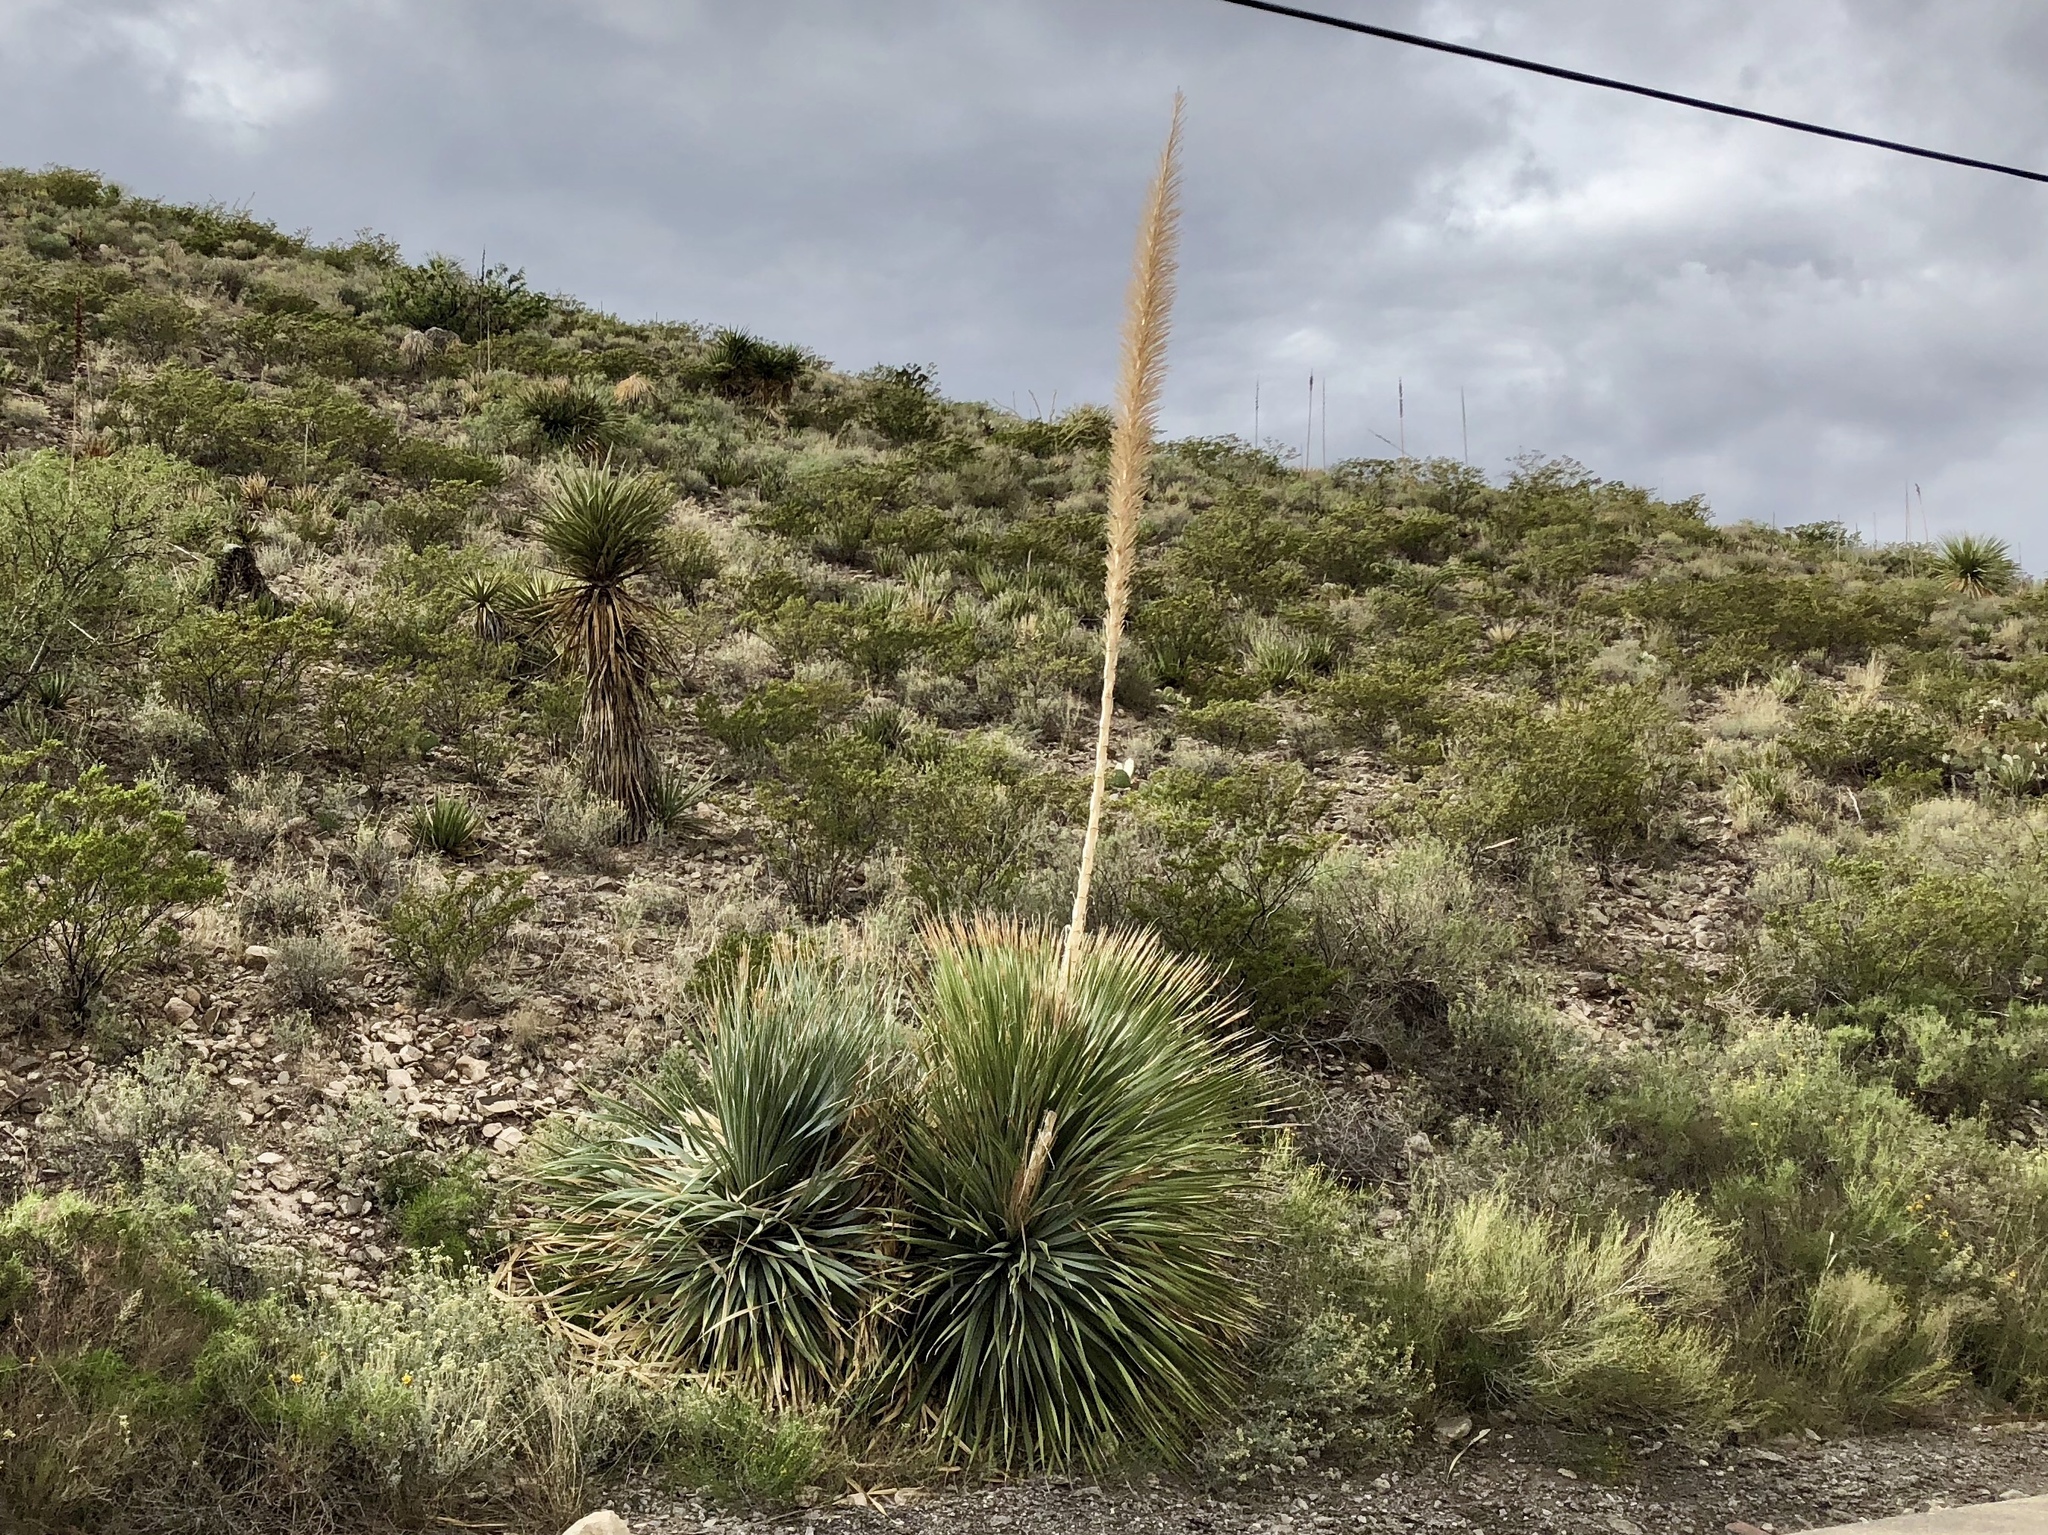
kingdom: Plantae
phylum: Tracheophyta
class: Liliopsida
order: Asparagales
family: Asparagaceae
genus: Dasylirion
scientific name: Dasylirion wheeleri
